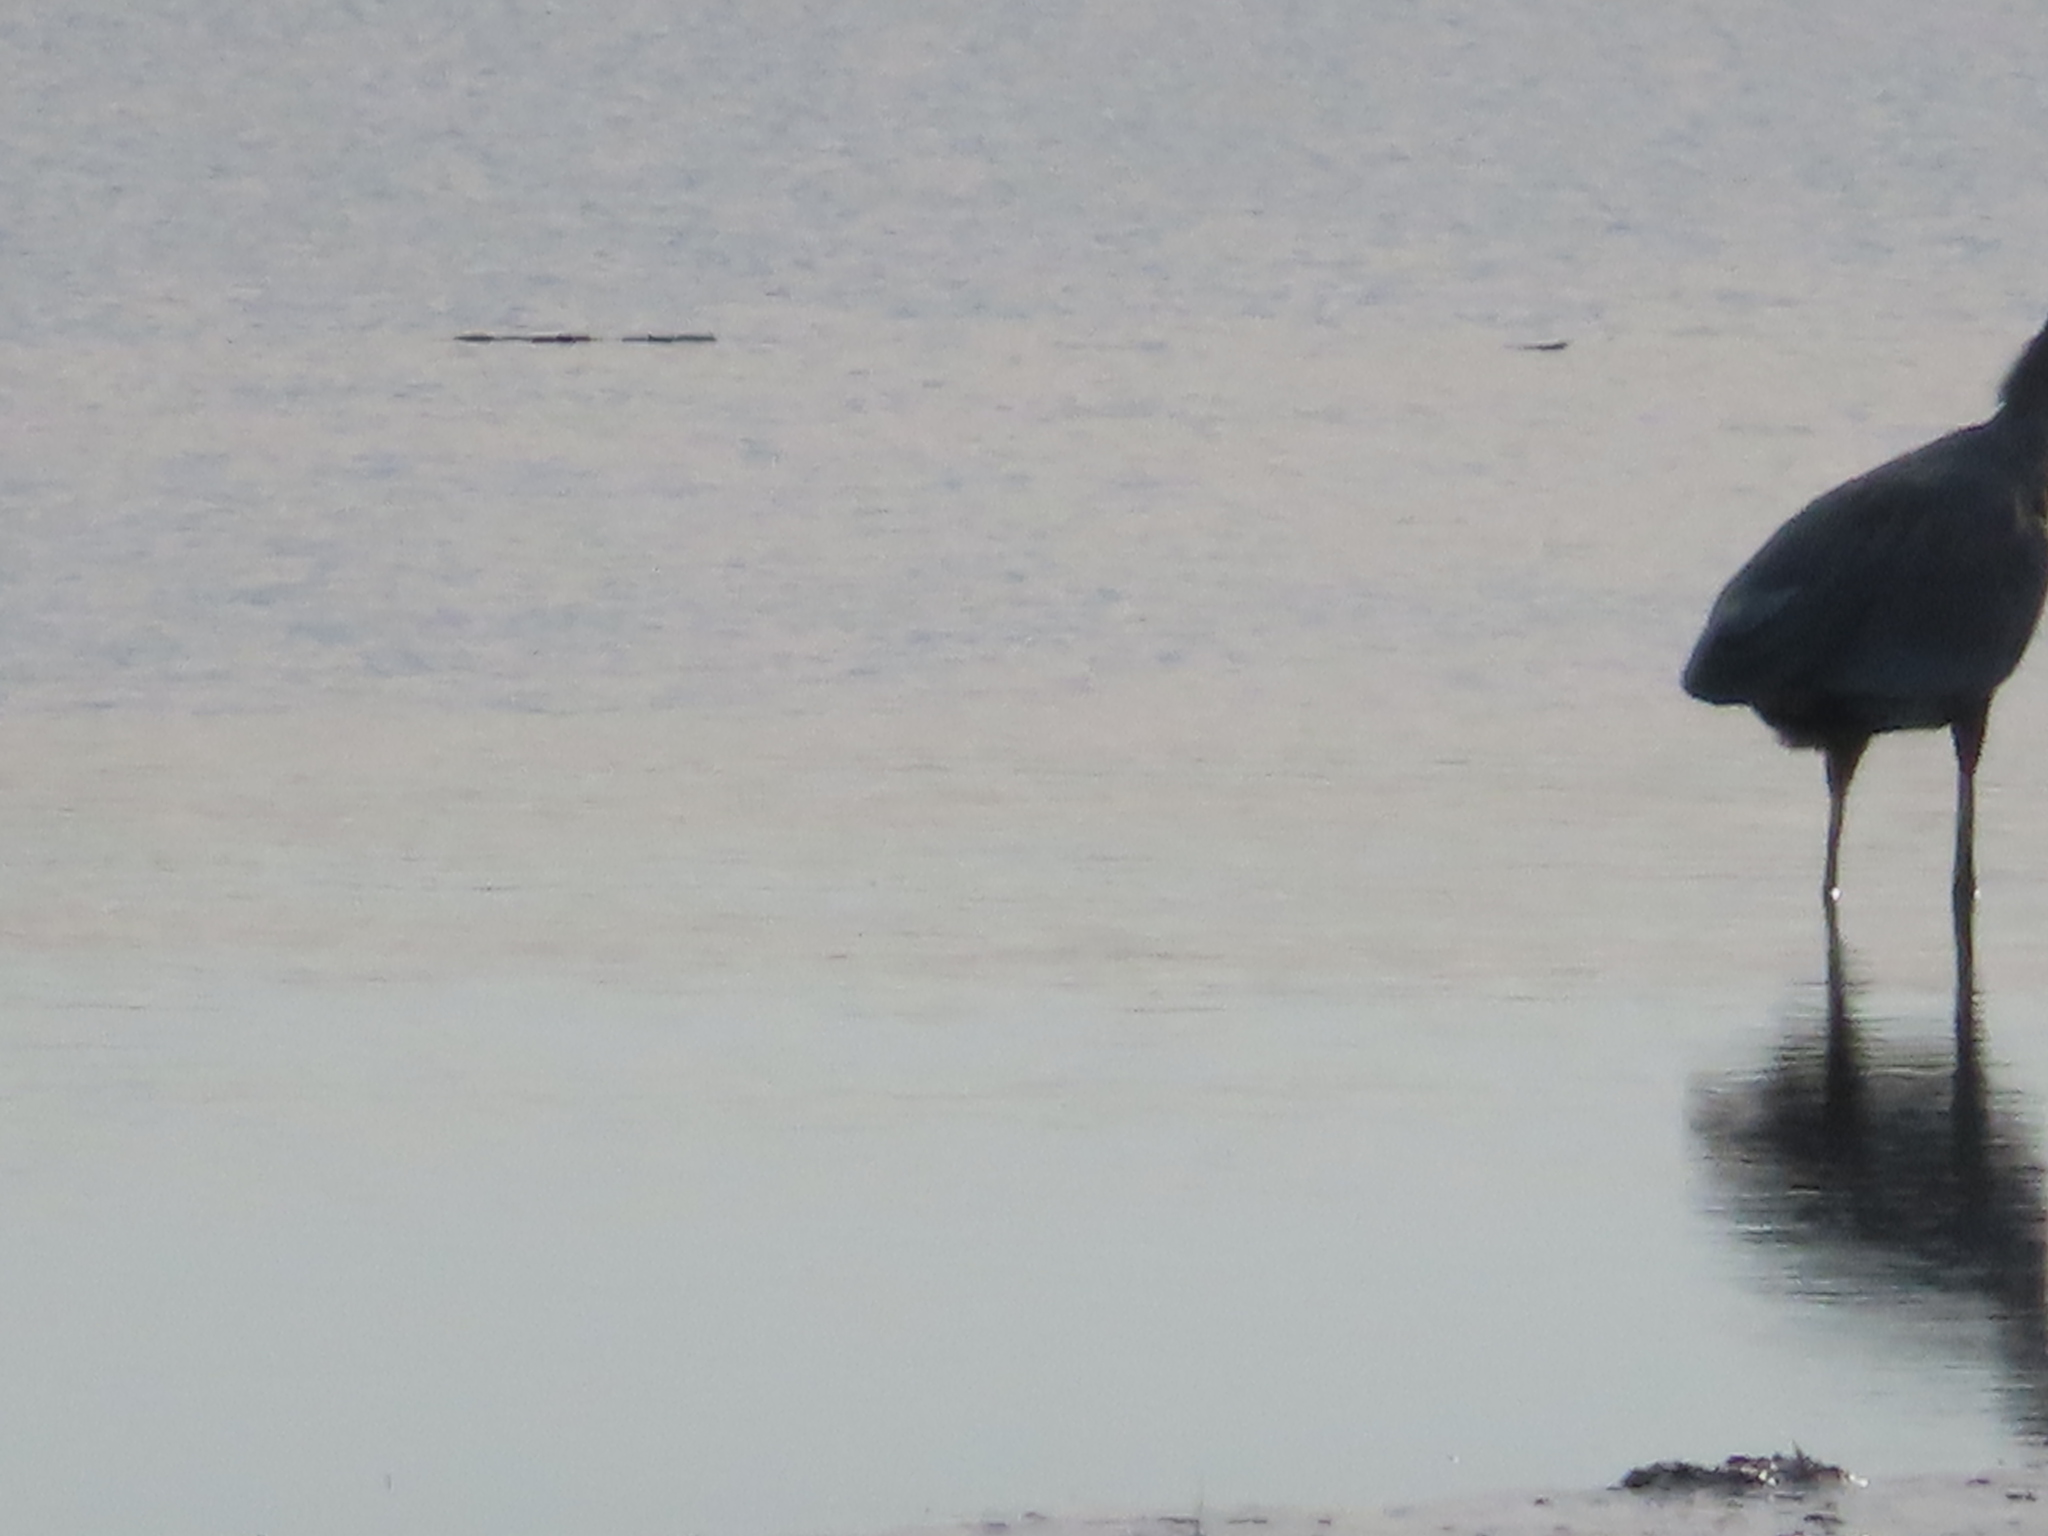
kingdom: Animalia
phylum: Chordata
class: Aves
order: Pelecaniformes
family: Ardeidae
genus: Ardea
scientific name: Ardea herodias
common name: Great blue heron
